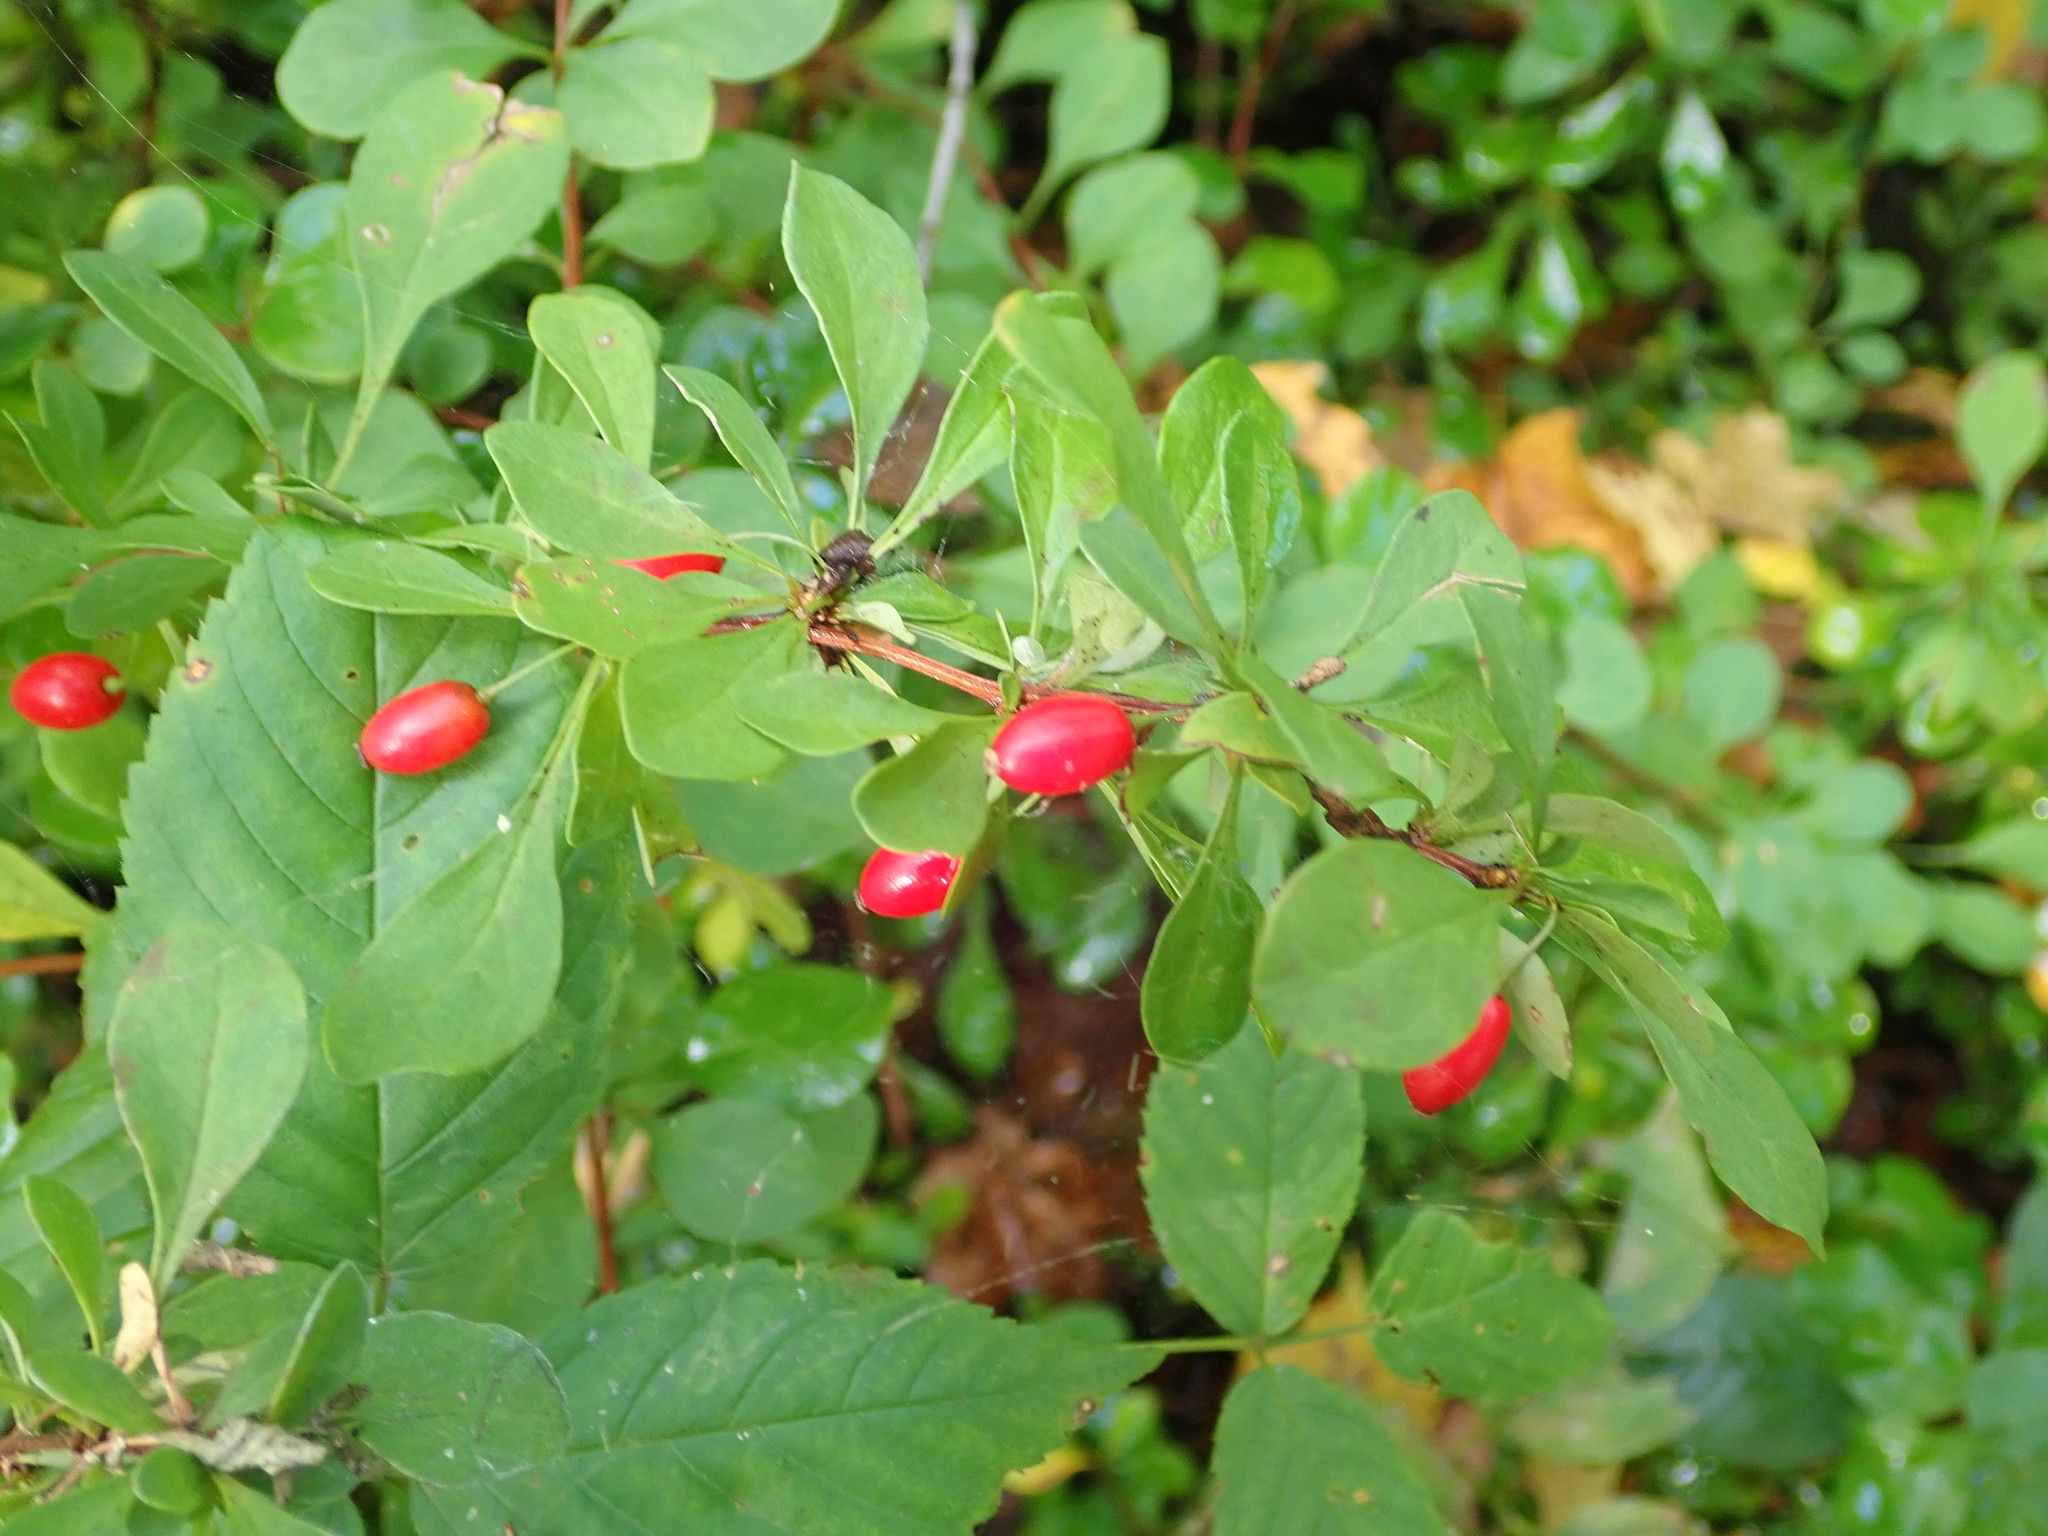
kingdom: Plantae
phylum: Tracheophyta
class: Magnoliopsida
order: Ranunculales
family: Berberidaceae
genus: Berberis
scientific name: Berberis thunbergii
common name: Japanese barberry
